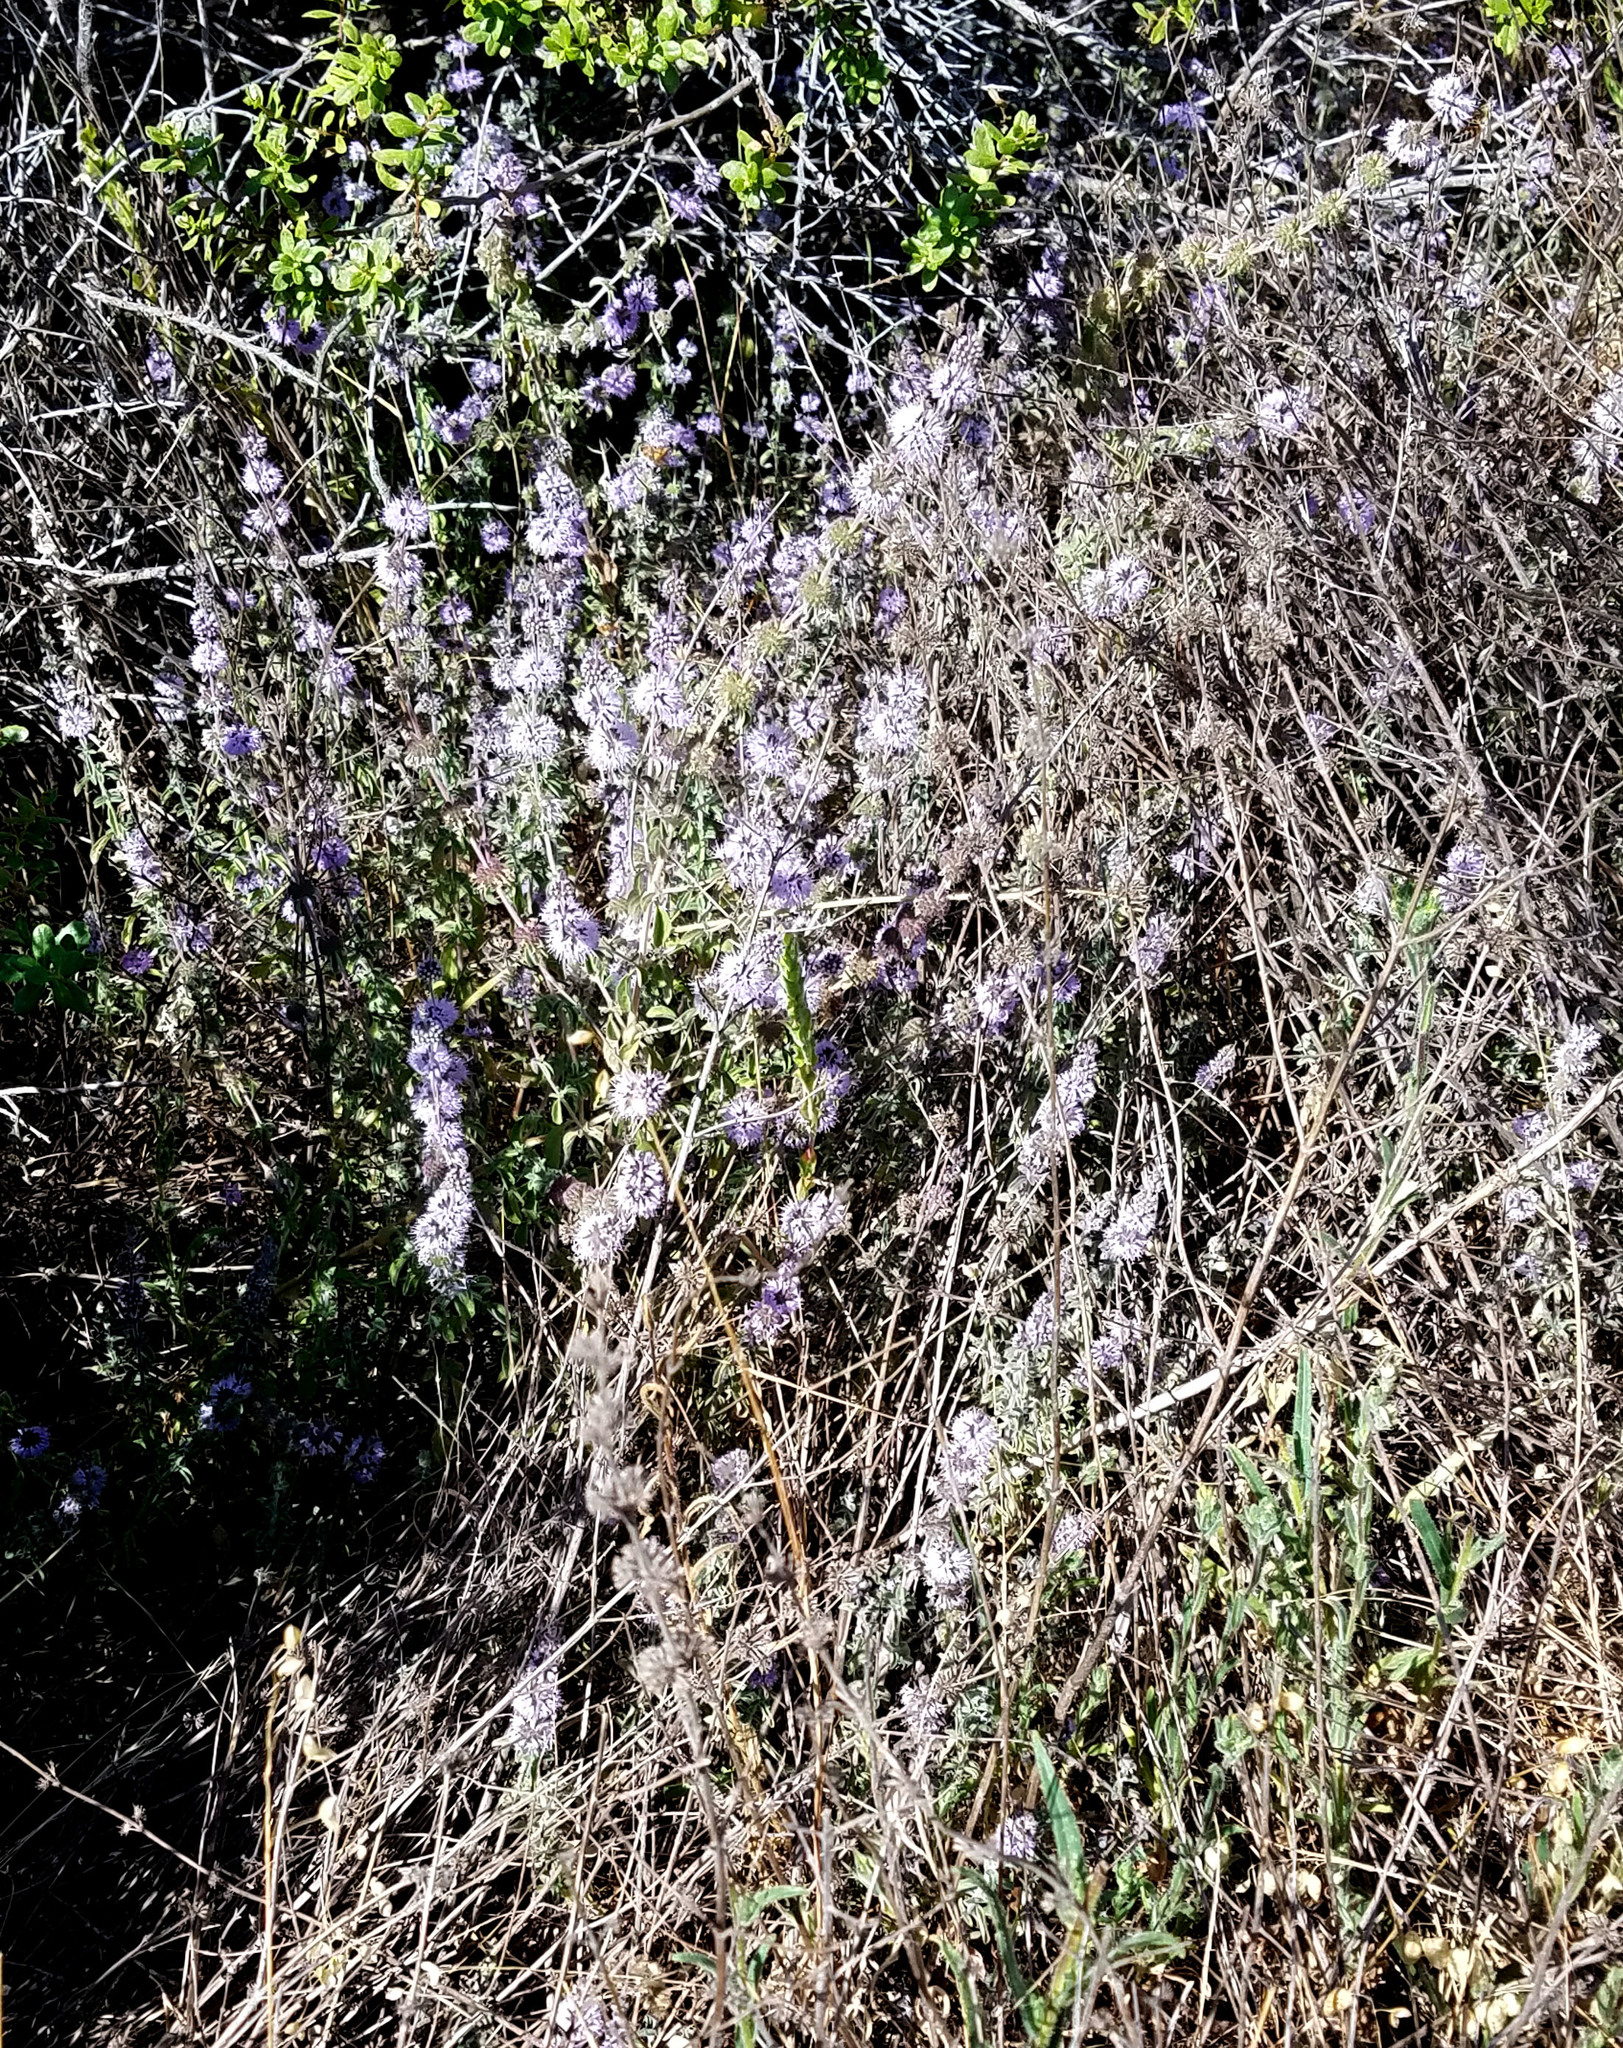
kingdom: Plantae
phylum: Tracheophyta
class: Magnoliopsida
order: Lamiales
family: Lamiaceae
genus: Mentha
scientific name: Mentha pulegium
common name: Pennyroyal
